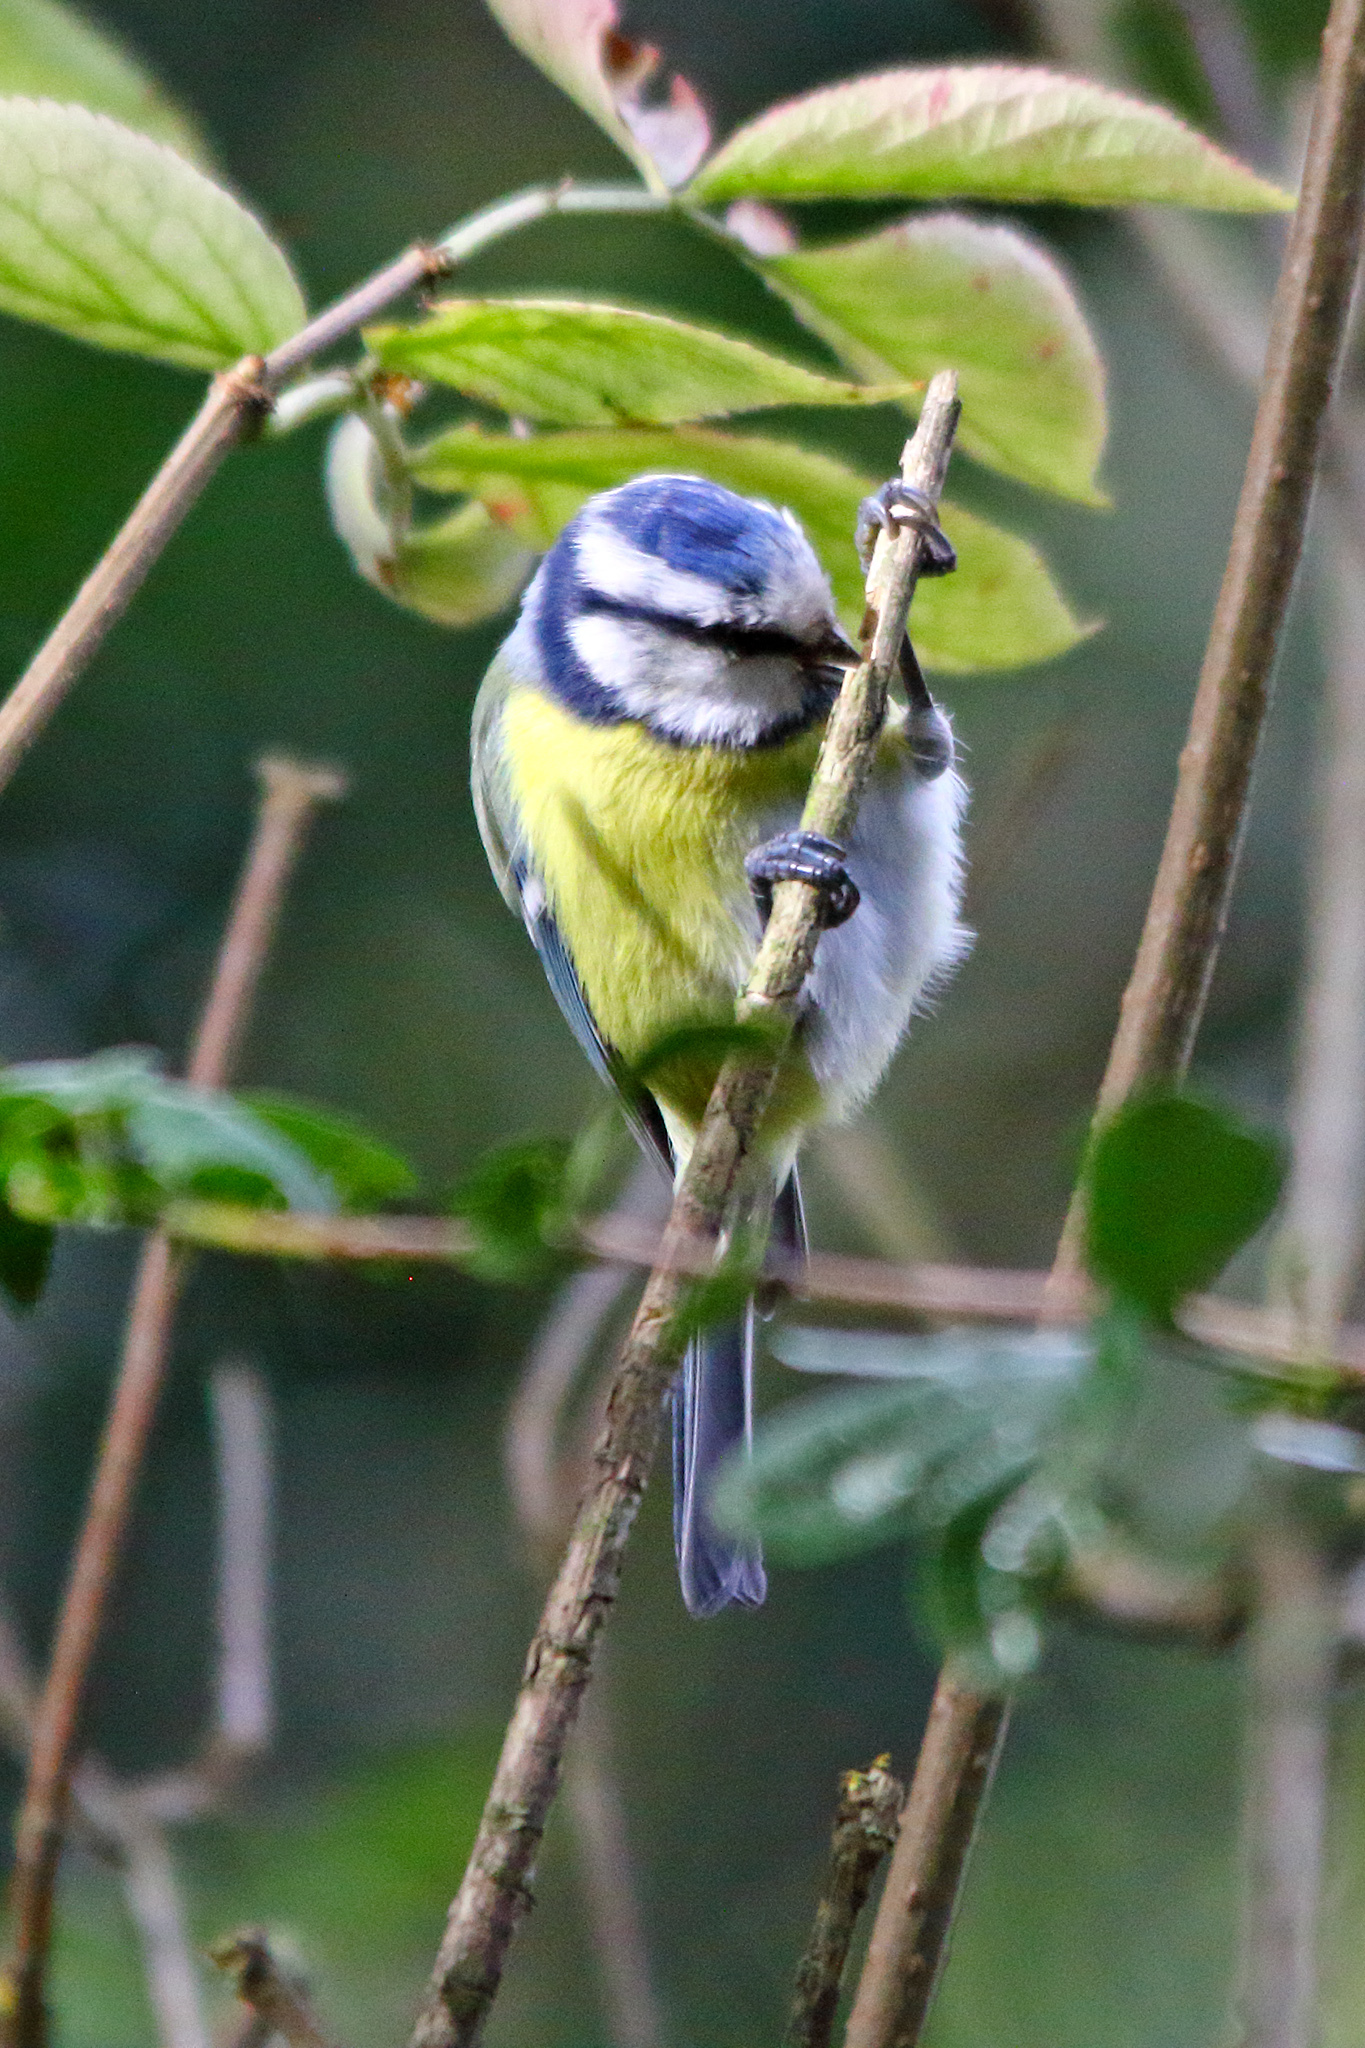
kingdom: Animalia
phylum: Chordata
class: Aves
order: Passeriformes
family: Paridae
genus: Cyanistes
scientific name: Cyanistes caeruleus
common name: Eurasian blue tit
